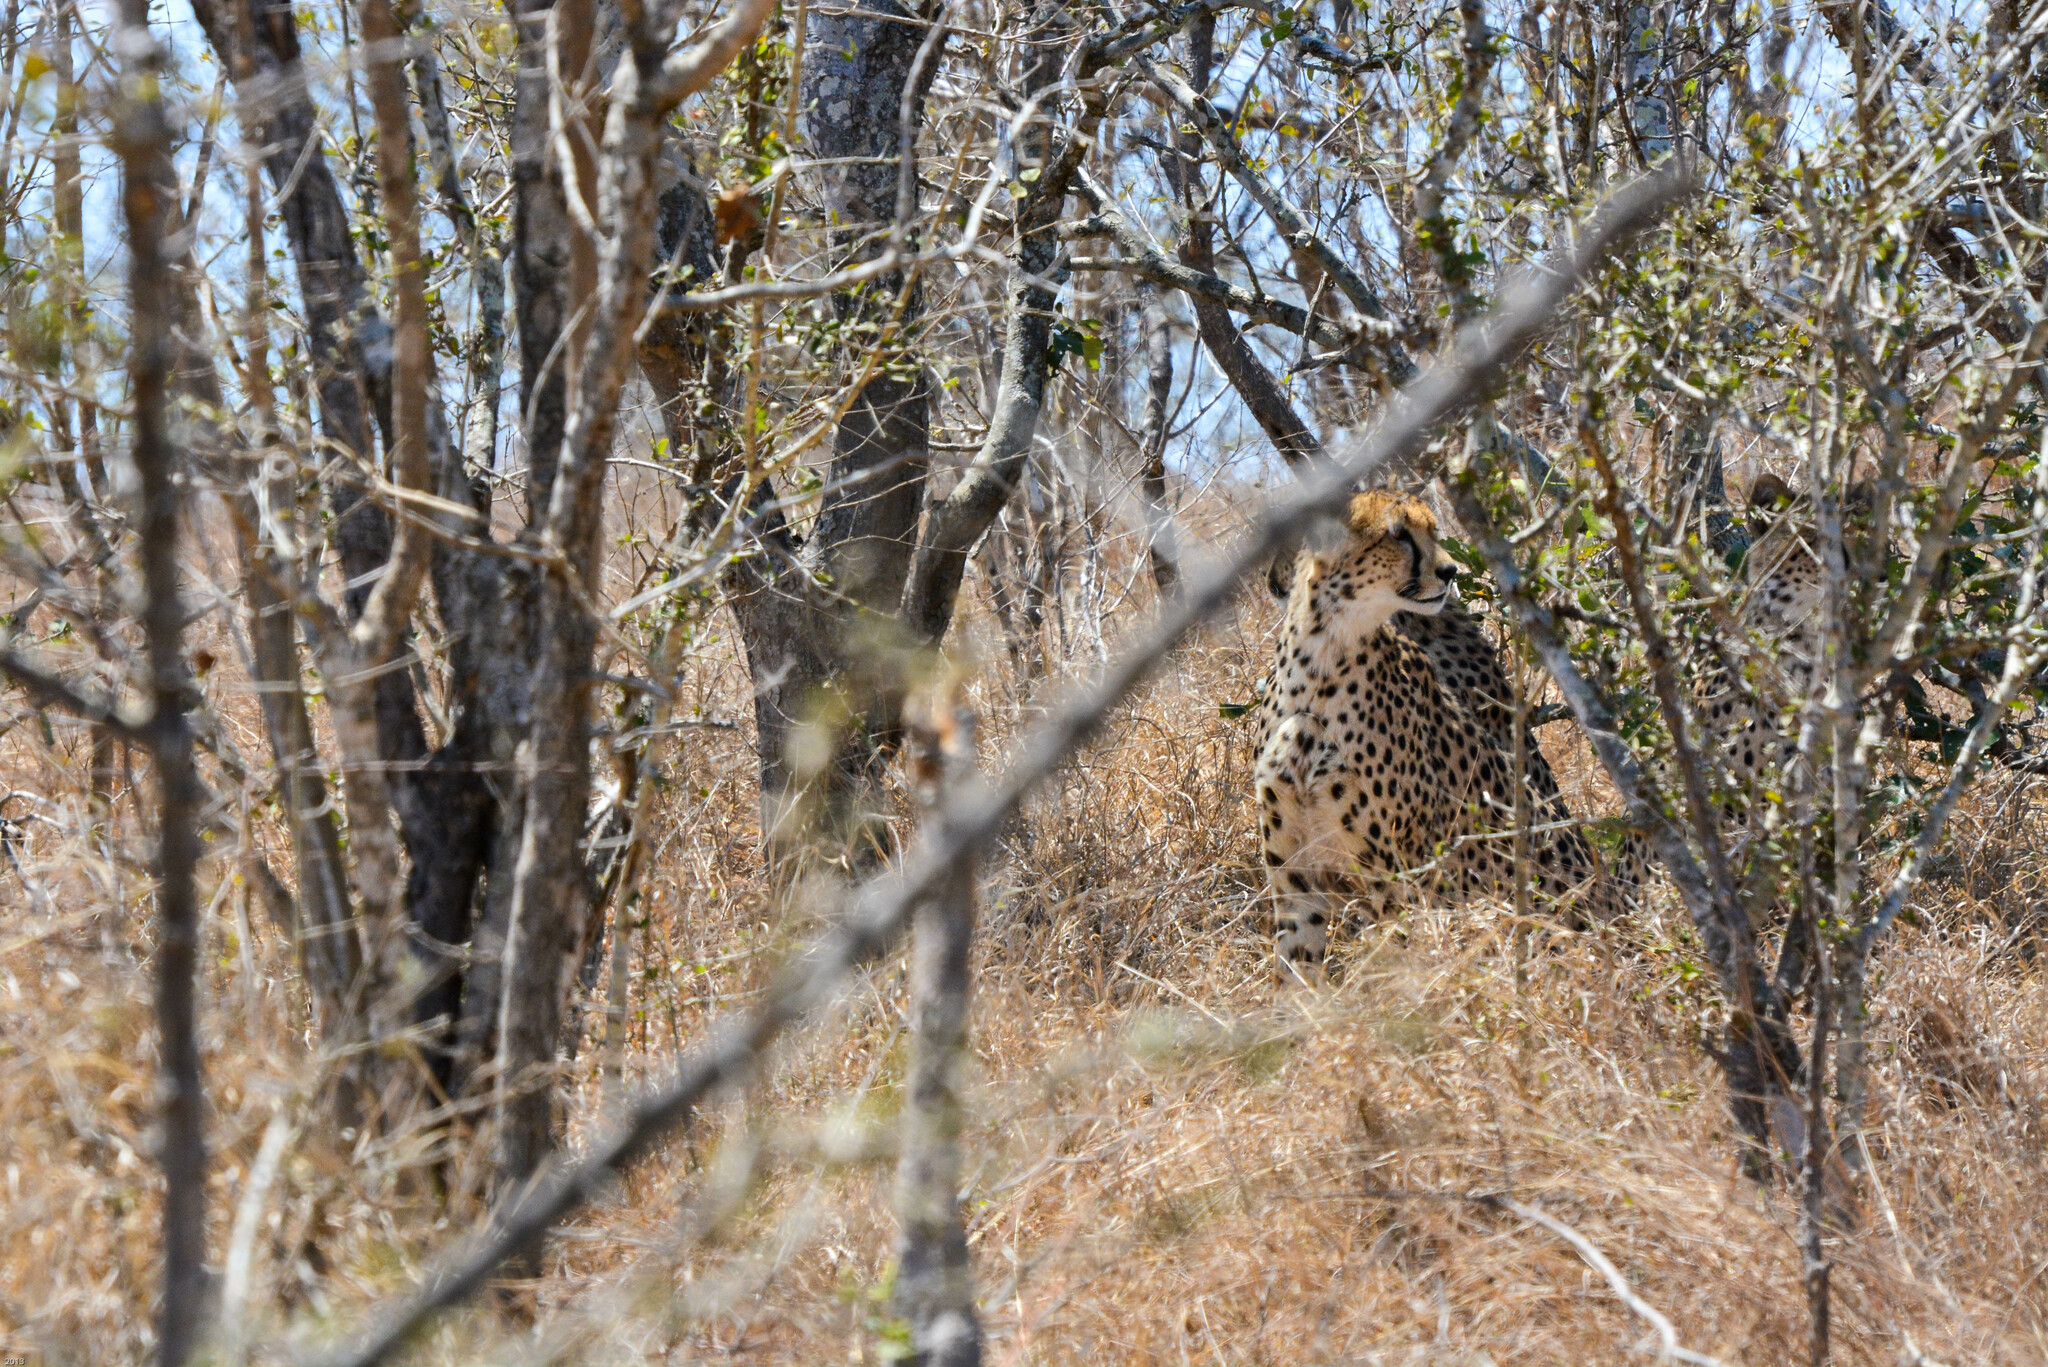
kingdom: Animalia
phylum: Chordata
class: Mammalia
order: Carnivora
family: Felidae
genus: Acinonyx
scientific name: Acinonyx jubatus
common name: Cheetah
